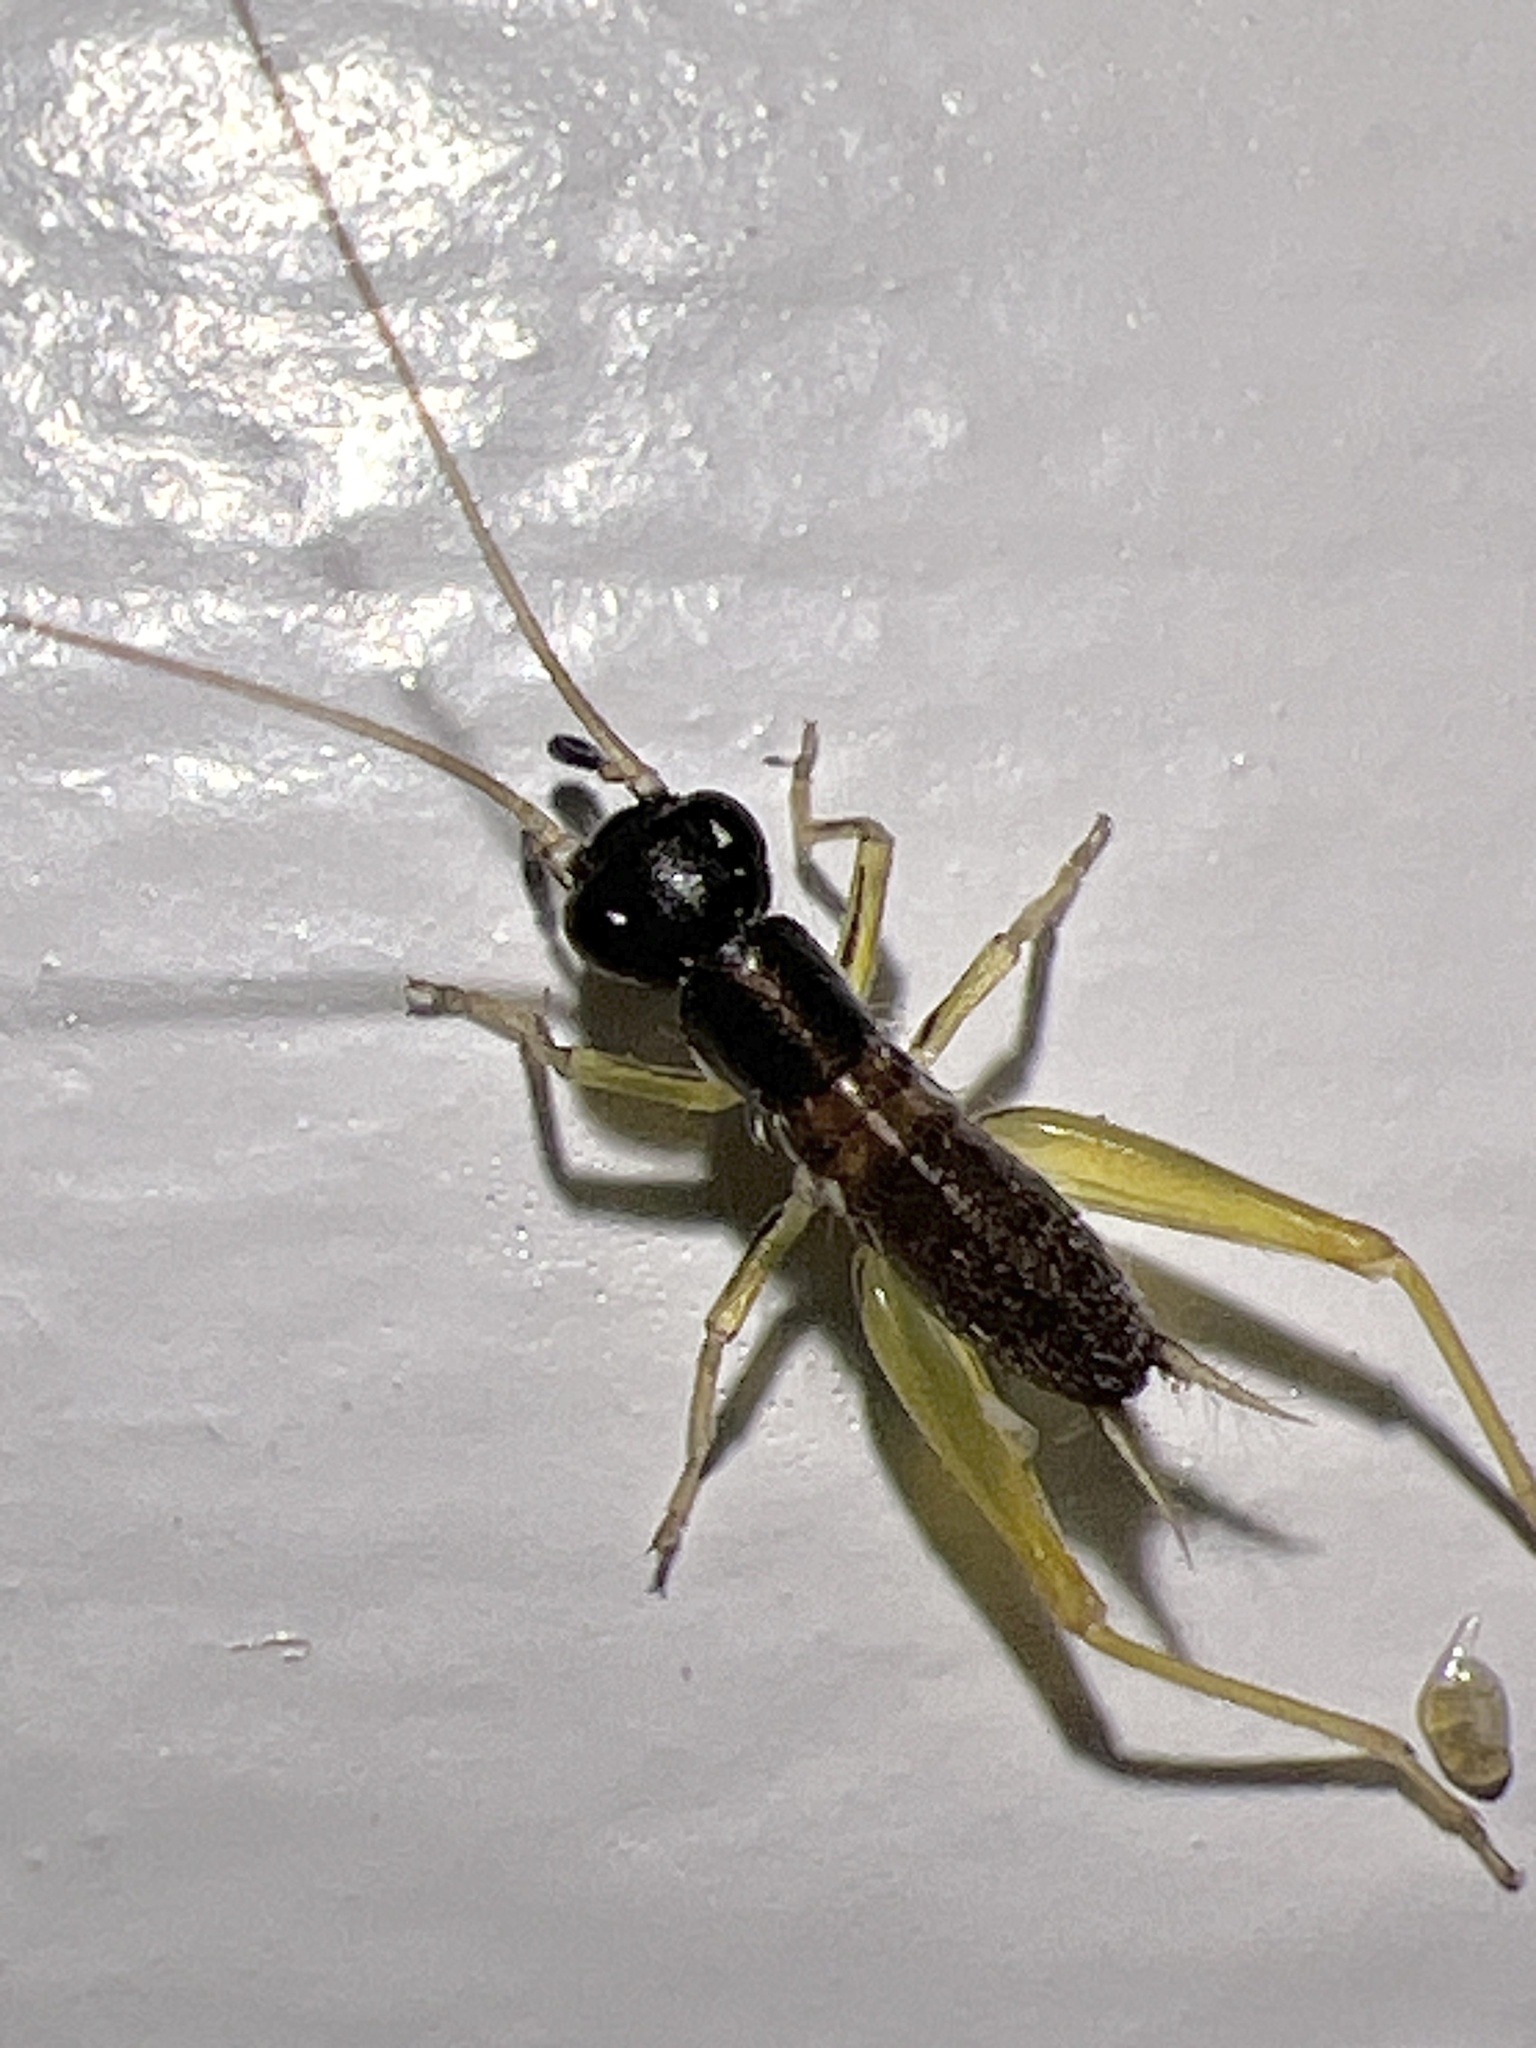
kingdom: Animalia
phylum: Arthropoda
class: Insecta
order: Orthoptera
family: Trigonidiidae
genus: Phyllopalpus
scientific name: Phyllopalpus pulchellus
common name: Handsome trig
